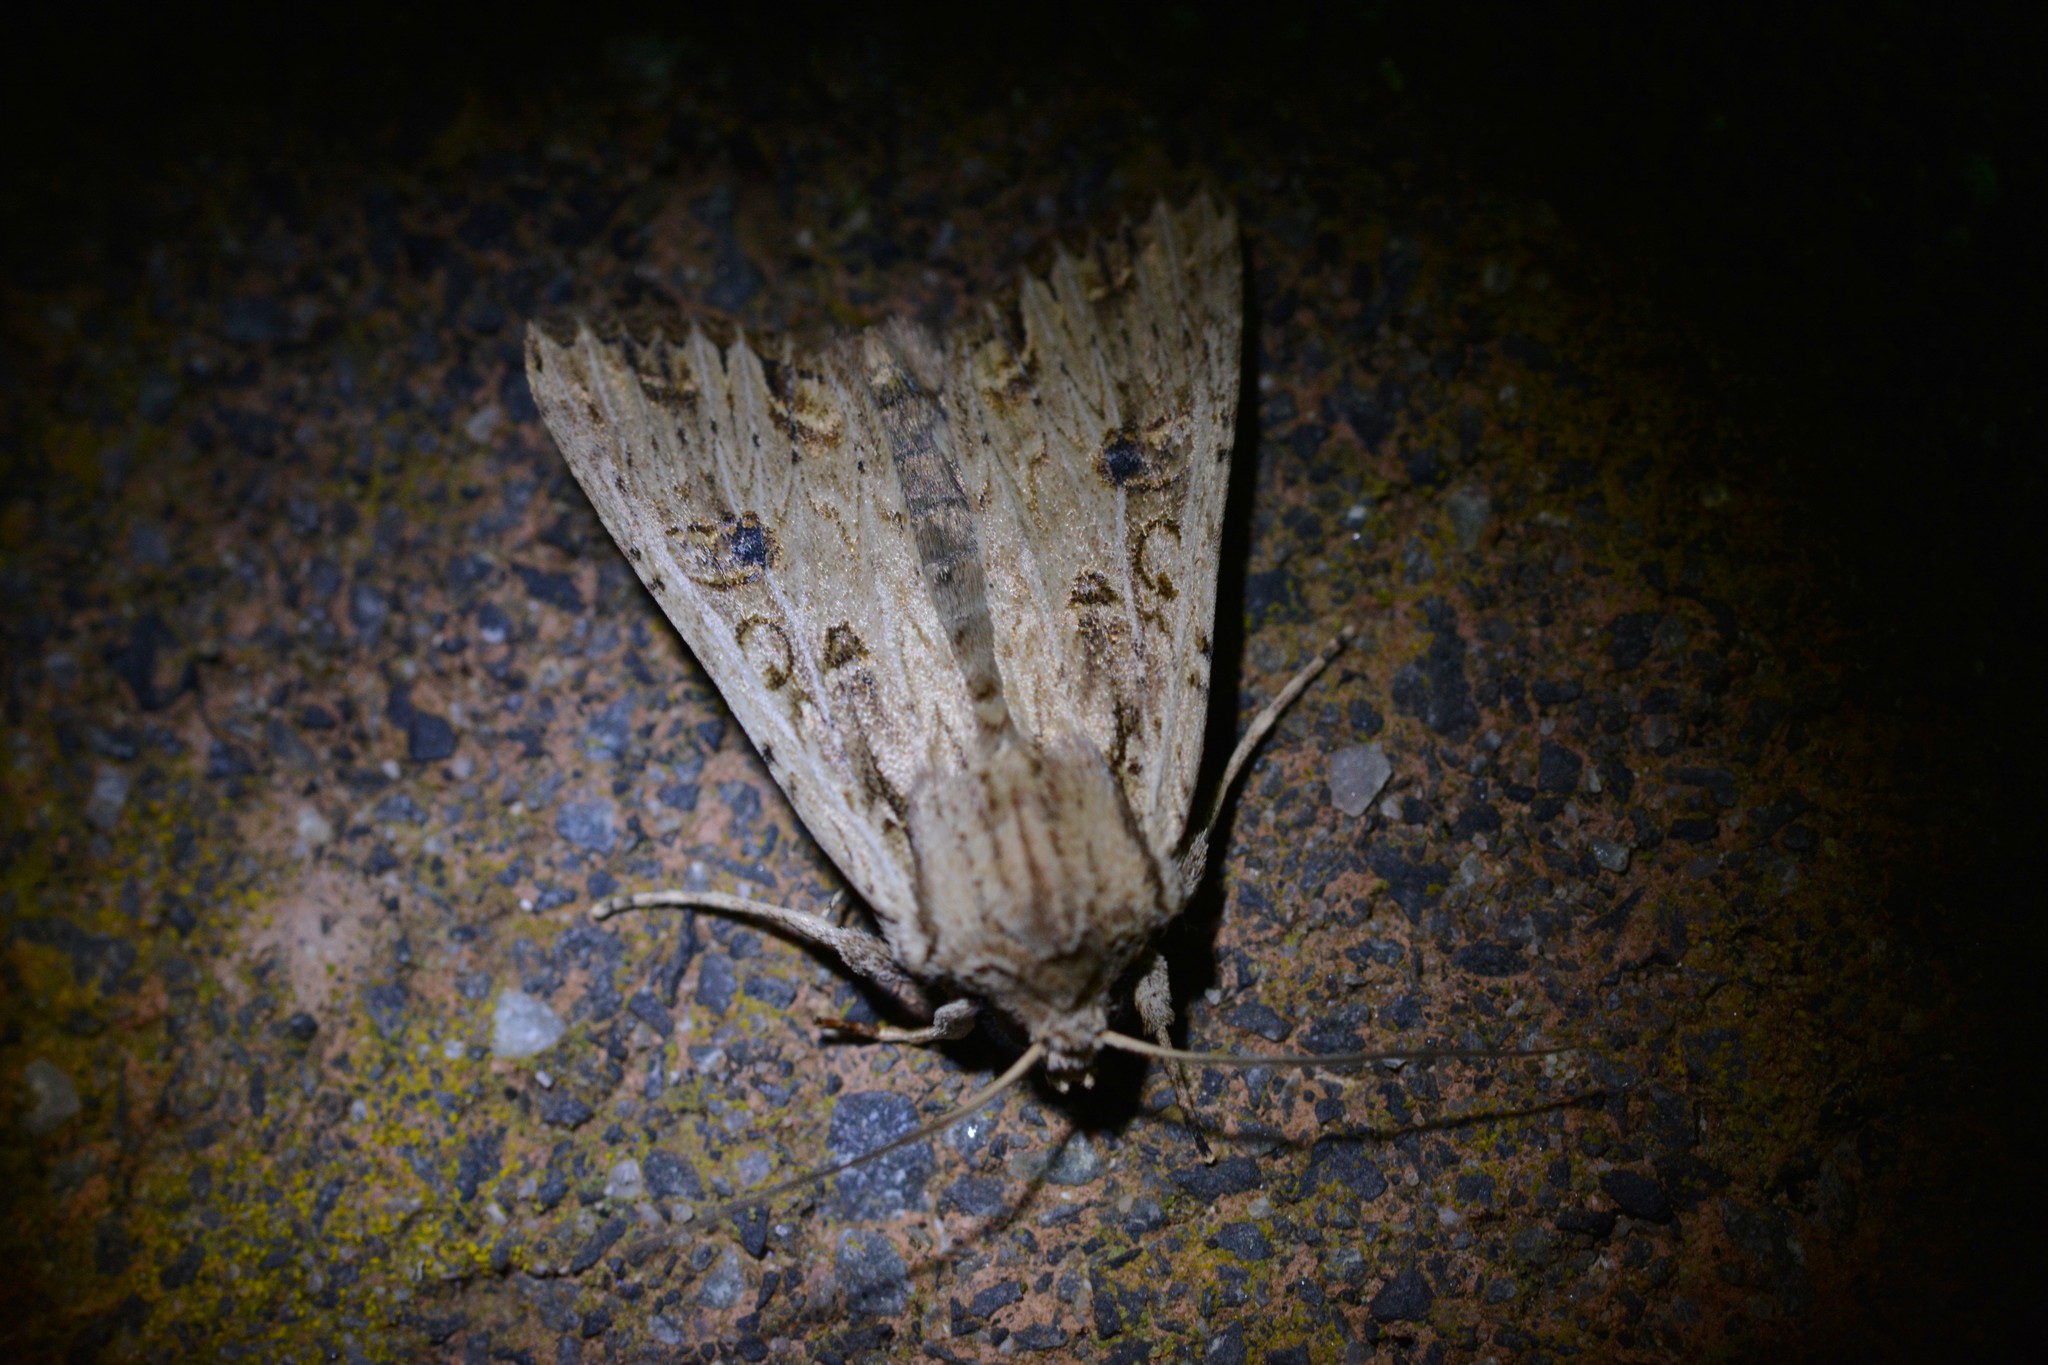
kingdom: Animalia
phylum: Arthropoda
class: Insecta
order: Lepidoptera
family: Noctuidae
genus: Ichneutica
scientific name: Ichneutica lignana
